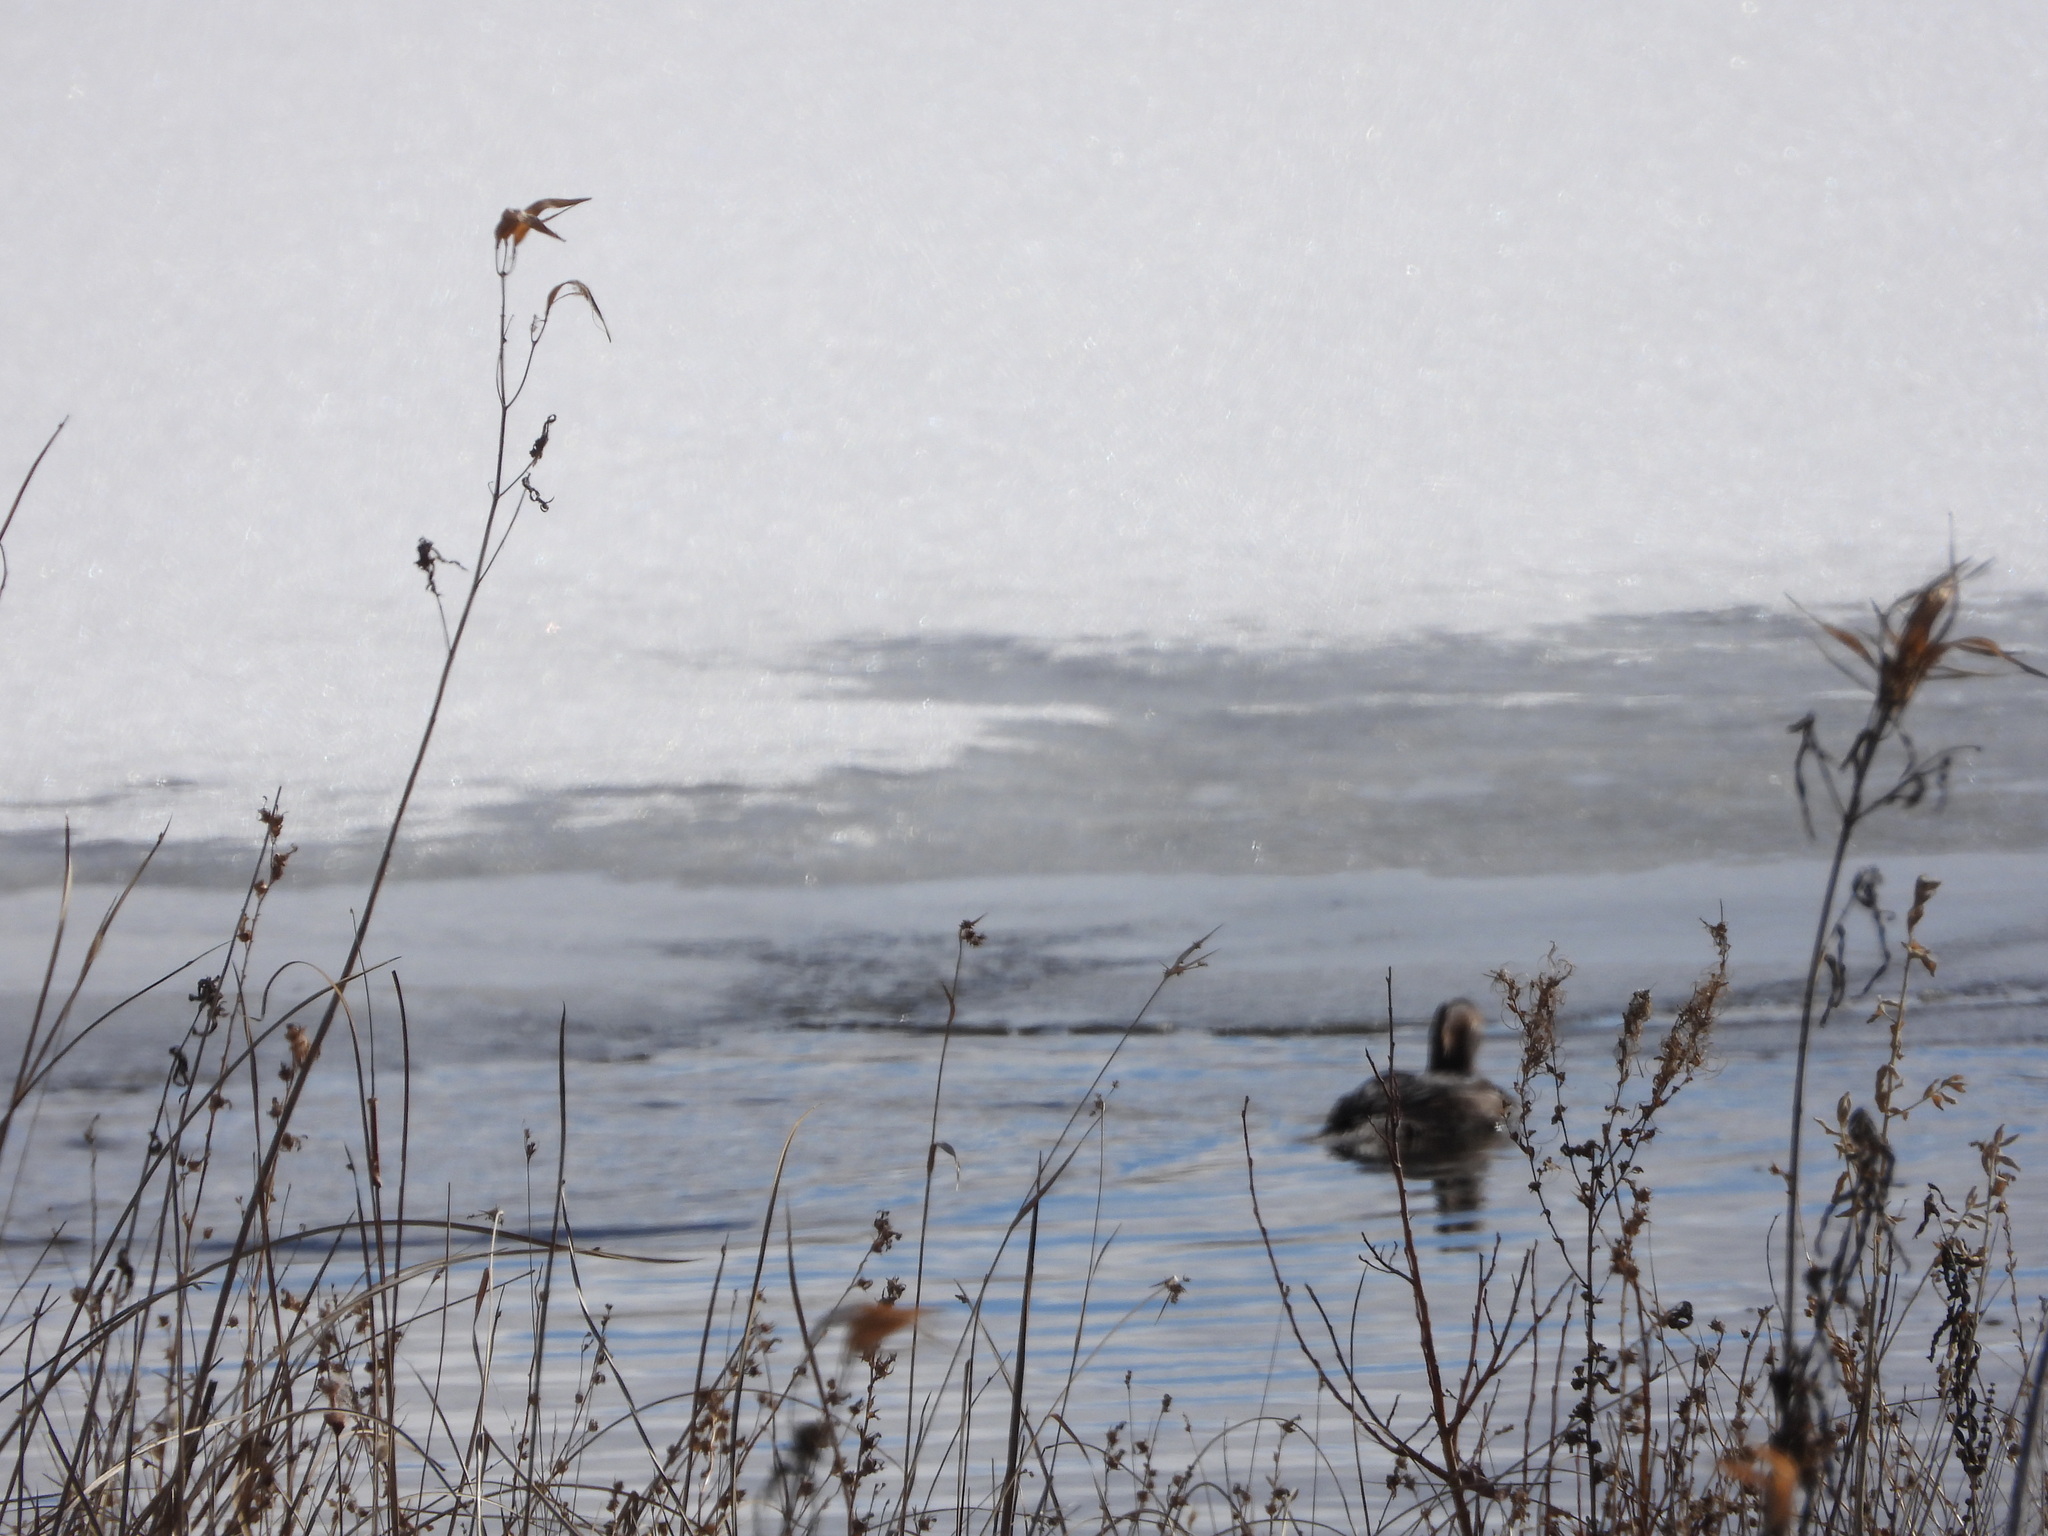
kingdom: Animalia
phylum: Chordata
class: Aves
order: Anseriformes
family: Anatidae
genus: Lophodytes
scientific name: Lophodytes cucullatus
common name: Hooded merganser
